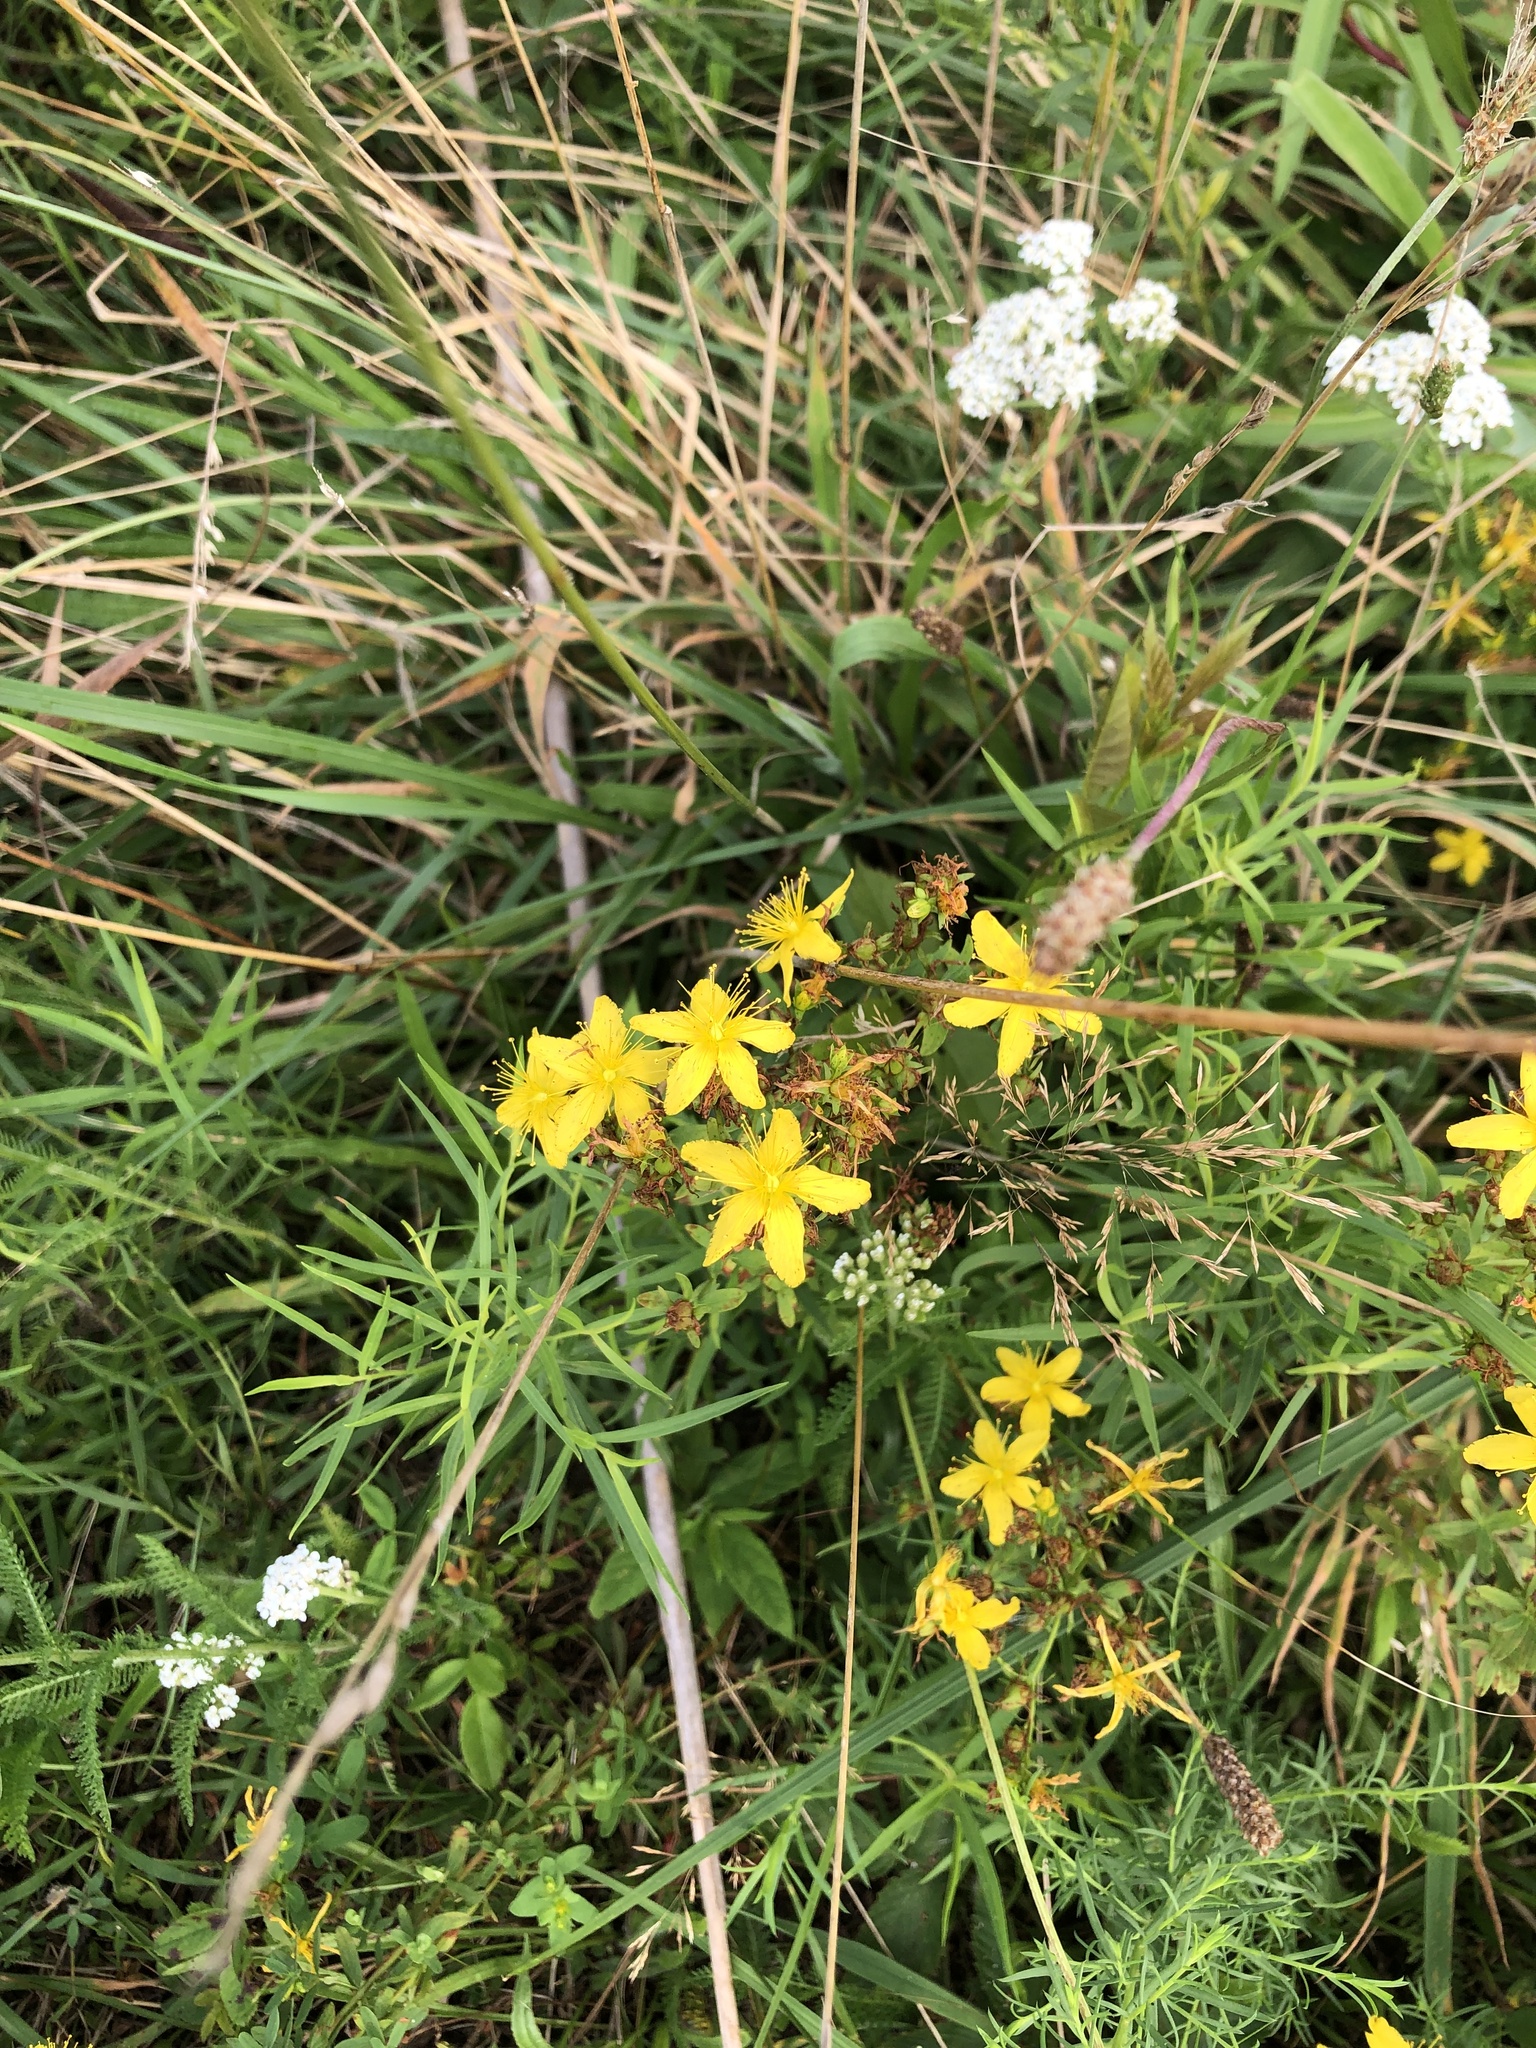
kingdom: Plantae
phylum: Tracheophyta
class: Magnoliopsida
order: Malpighiales
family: Hypericaceae
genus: Hypericum
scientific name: Hypericum perforatum
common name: Common st. johnswort
